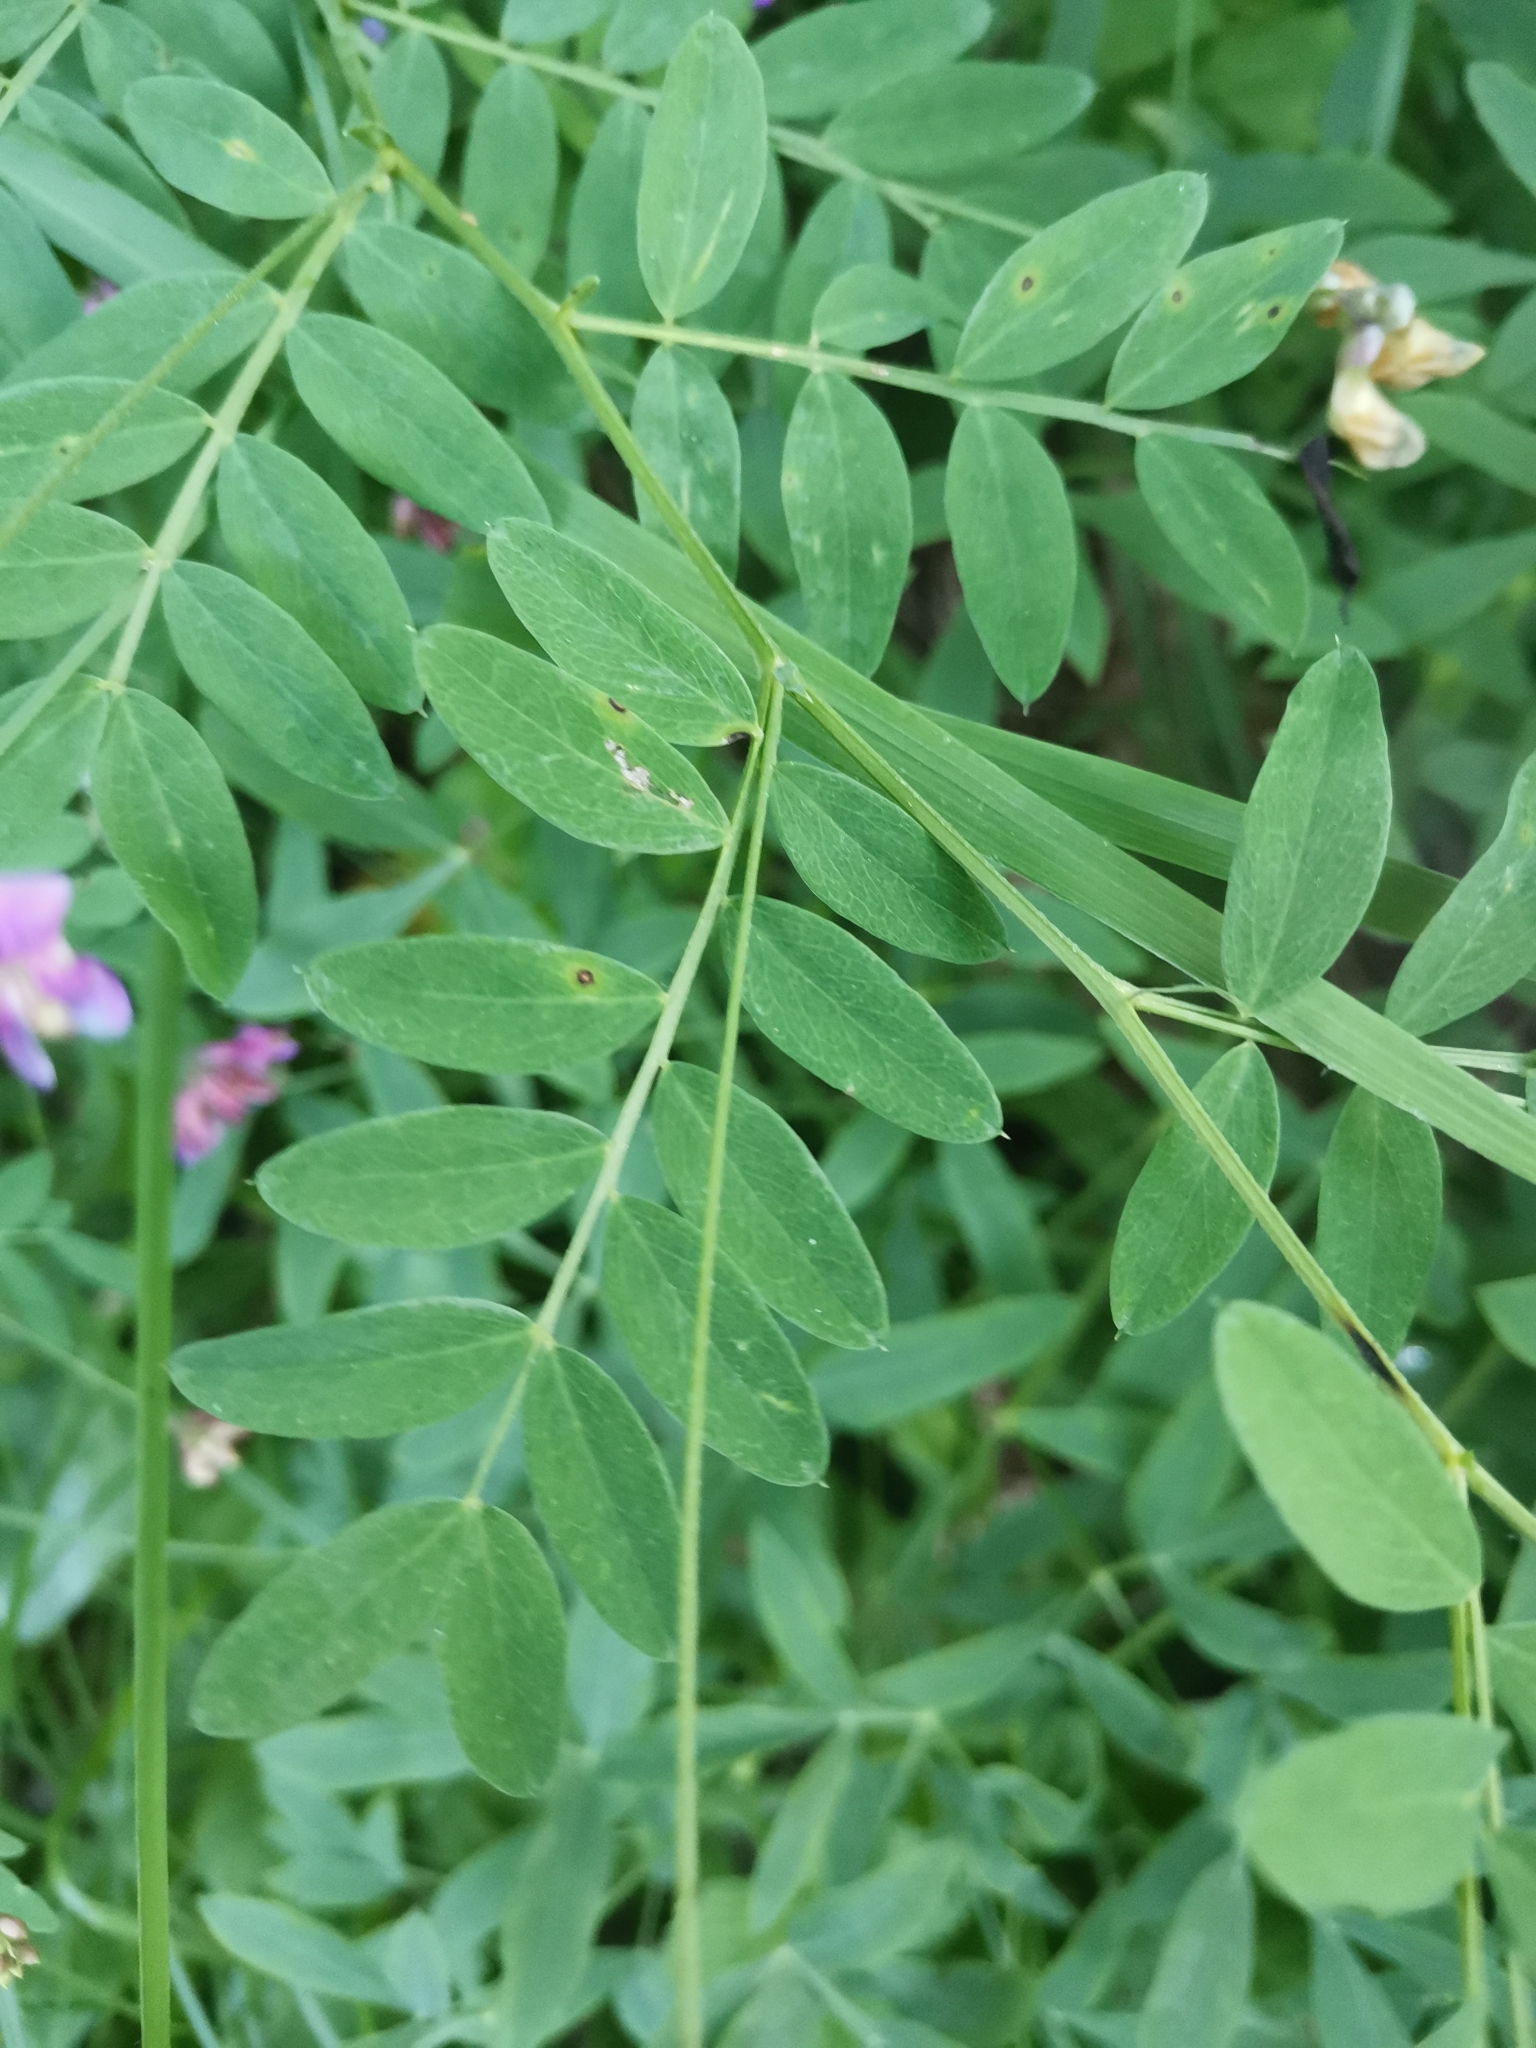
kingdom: Plantae
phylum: Tracheophyta
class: Magnoliopsida
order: Fabales
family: Fabaceae
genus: Lathyrus
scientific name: Lathyrus niger
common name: Black pea
